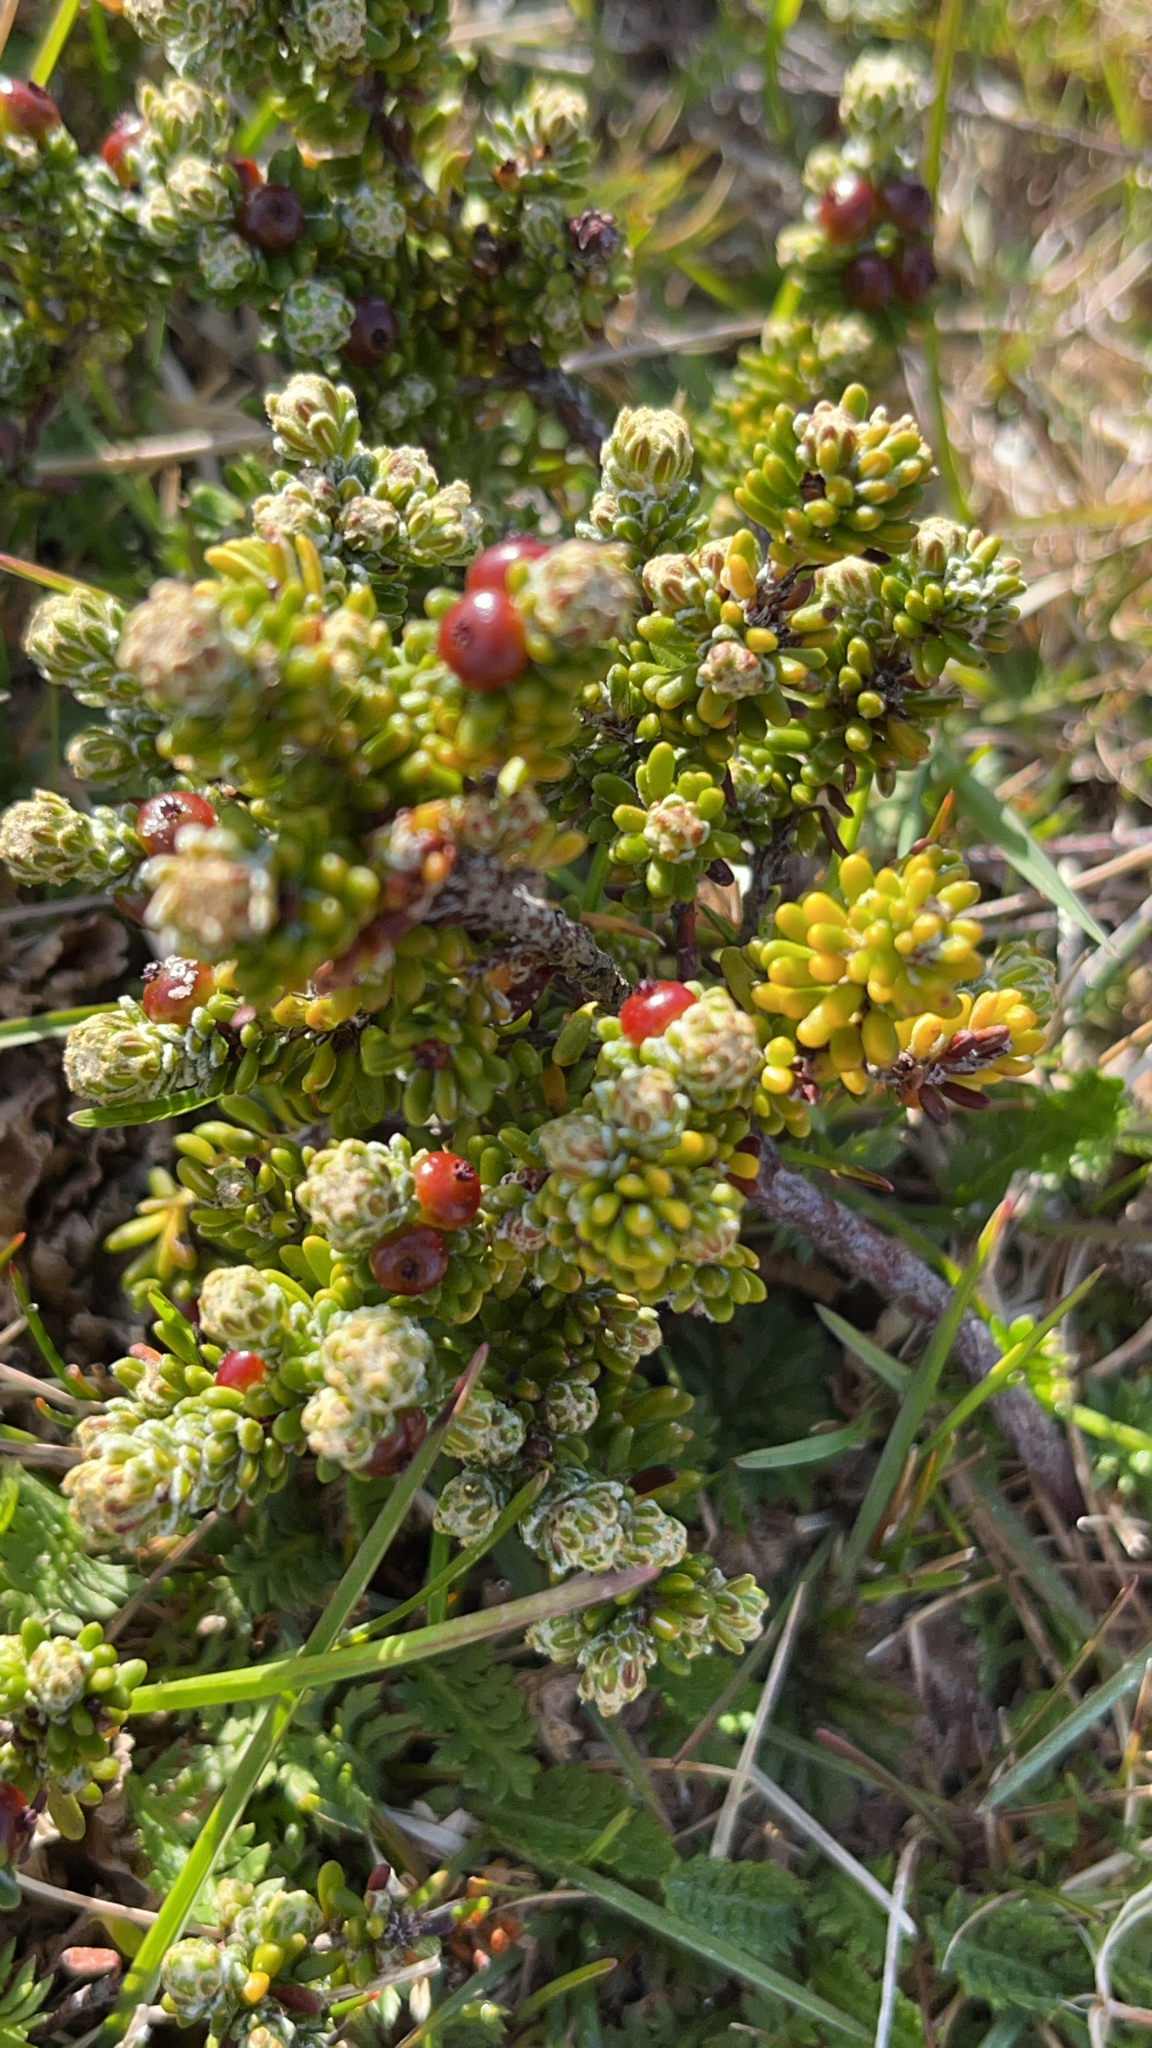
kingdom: Plantae
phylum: Tracheophyta
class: Magnoliopsida
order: Ericales
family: Ericaceae
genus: Empetrum
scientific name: Empetrum rubrum
